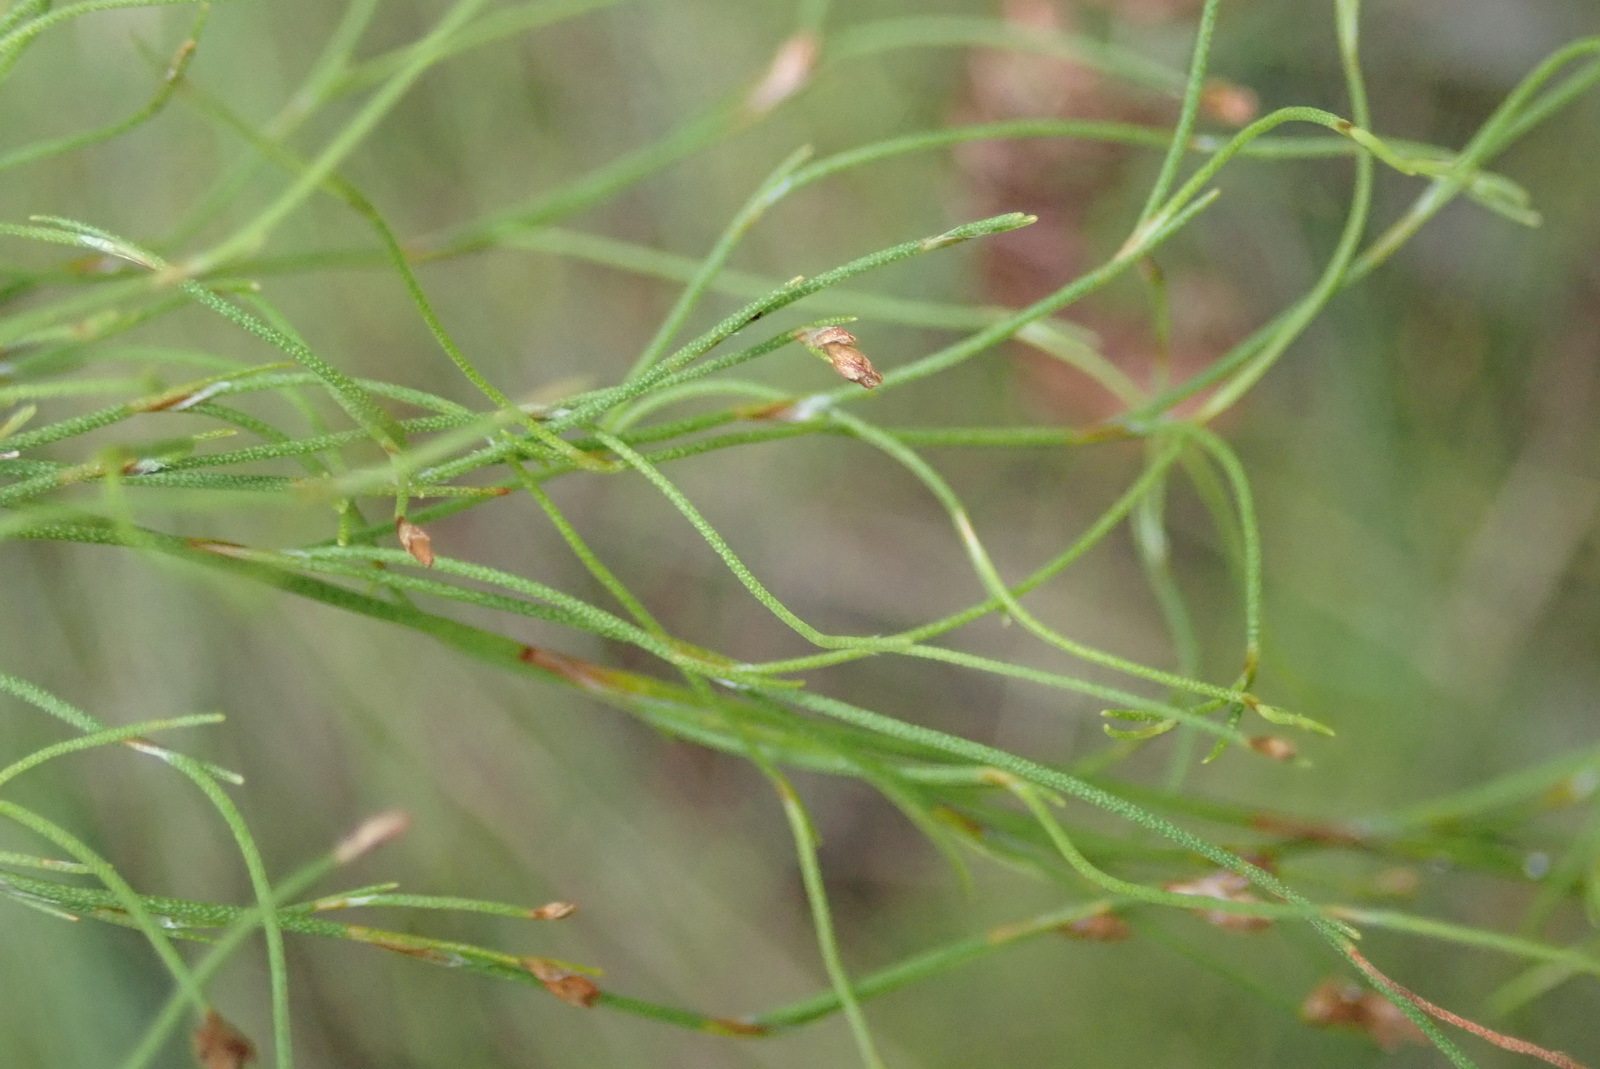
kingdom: Plantae
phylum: Tracheophyta
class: Liliopsida
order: Poales
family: Restionaceae
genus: Restio
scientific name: Restio scaberulus
